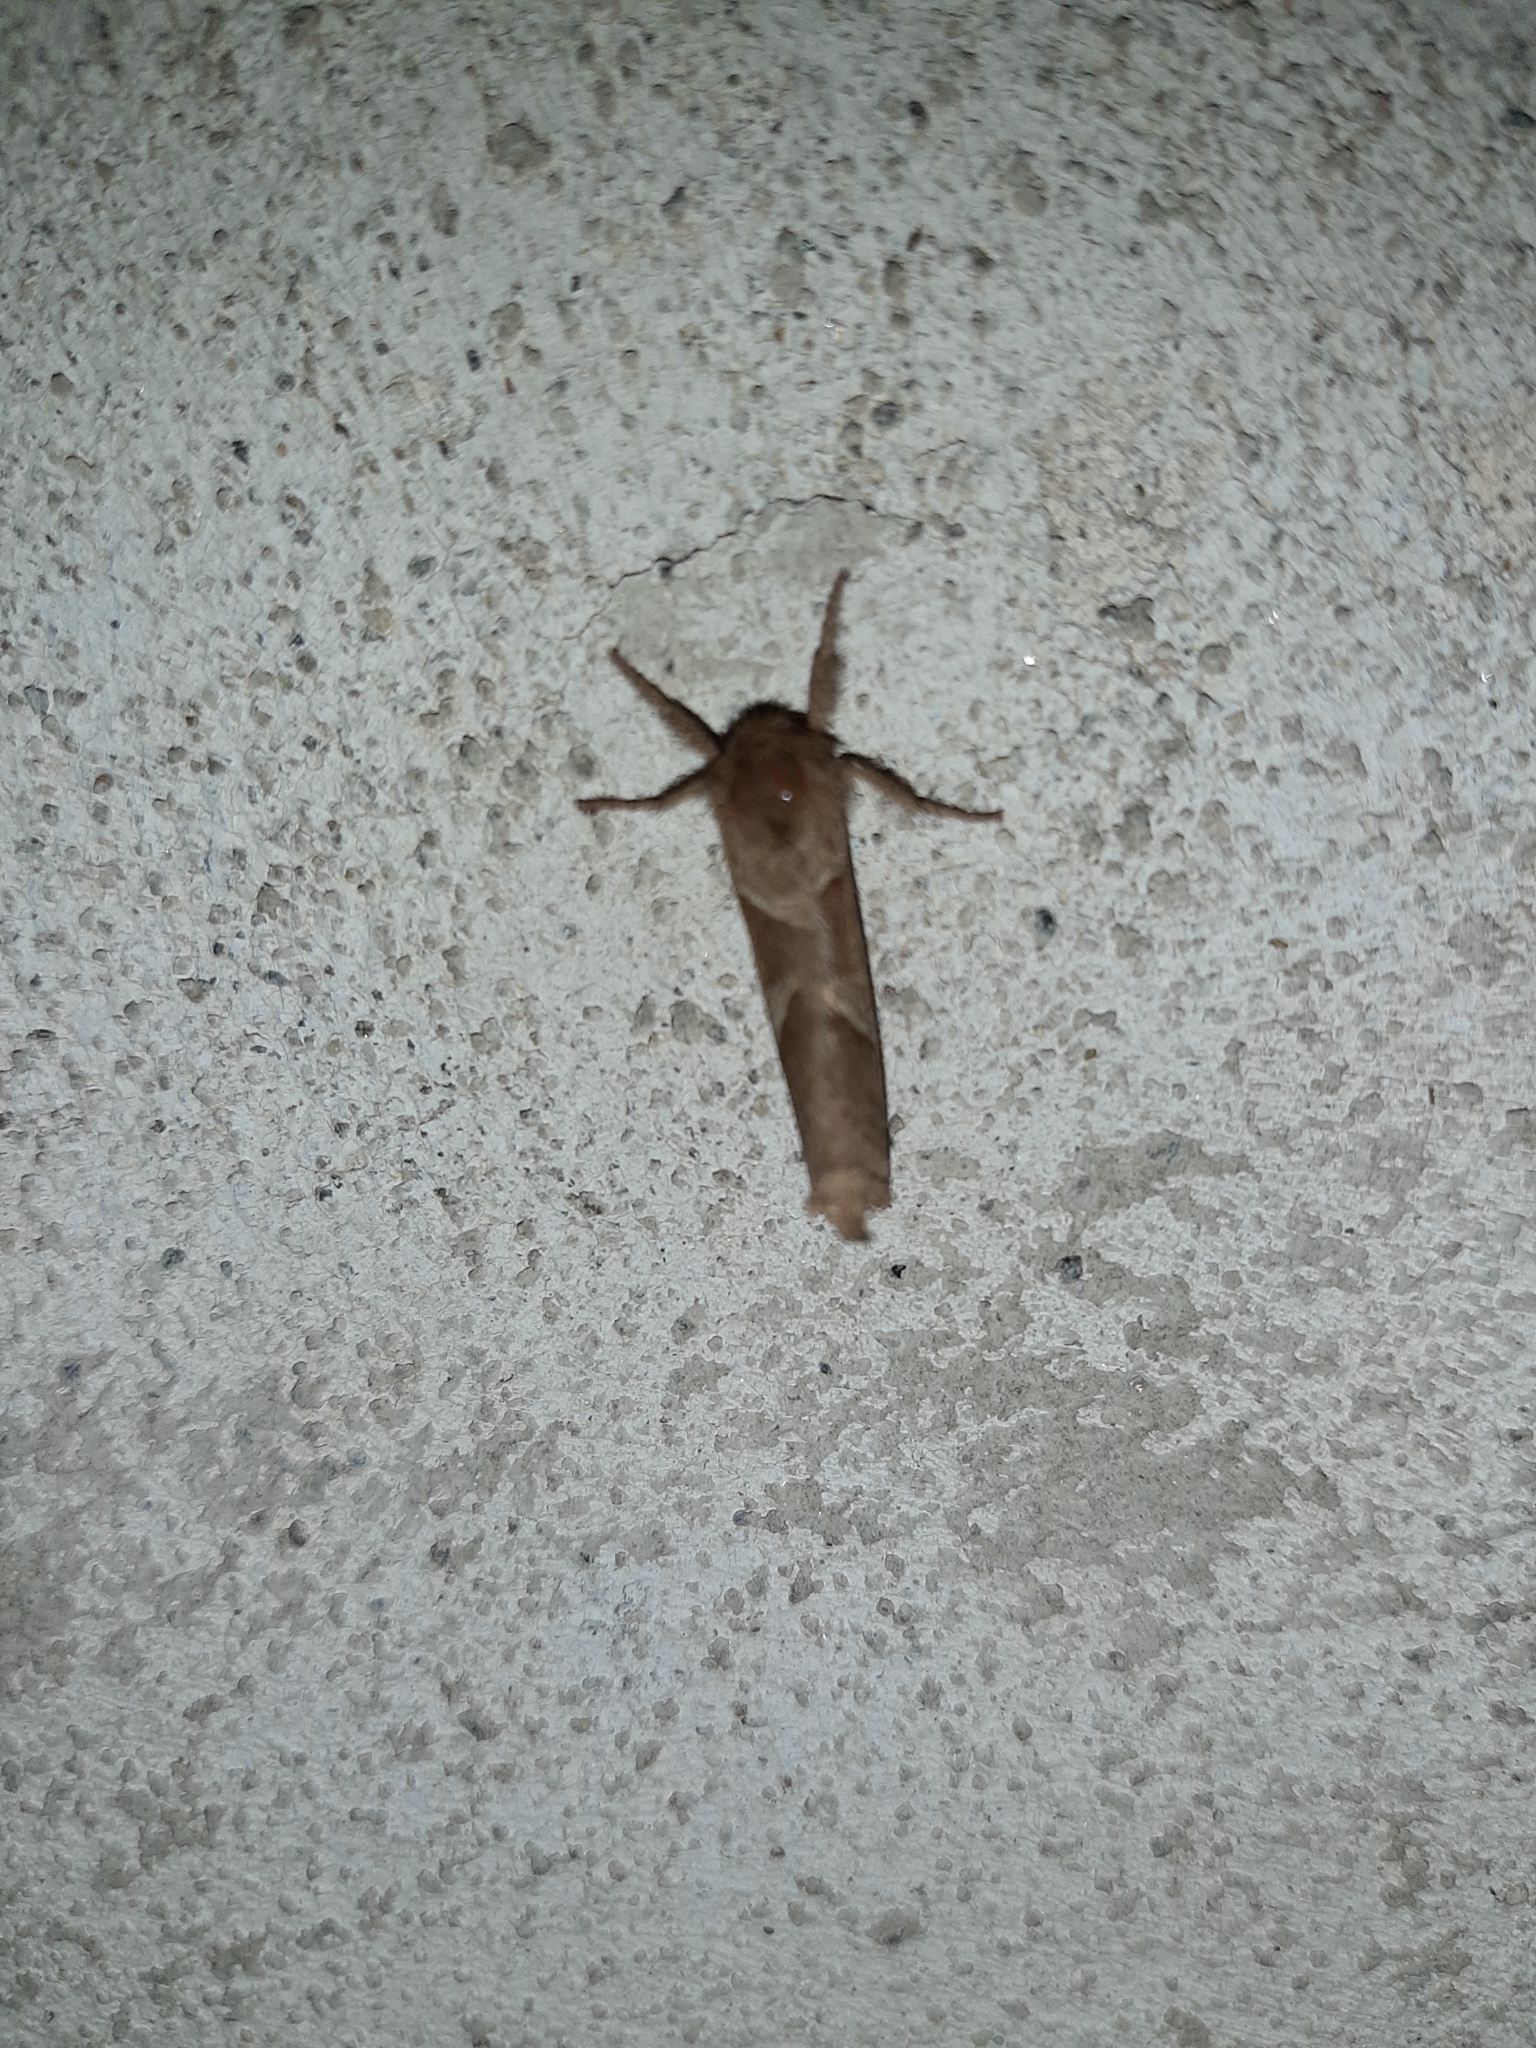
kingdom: Animalia
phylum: Arthropoda
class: Insecta
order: Lepidoptera
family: Hepialidae
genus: Triodia
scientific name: Triodia sylvina
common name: Orange swift
